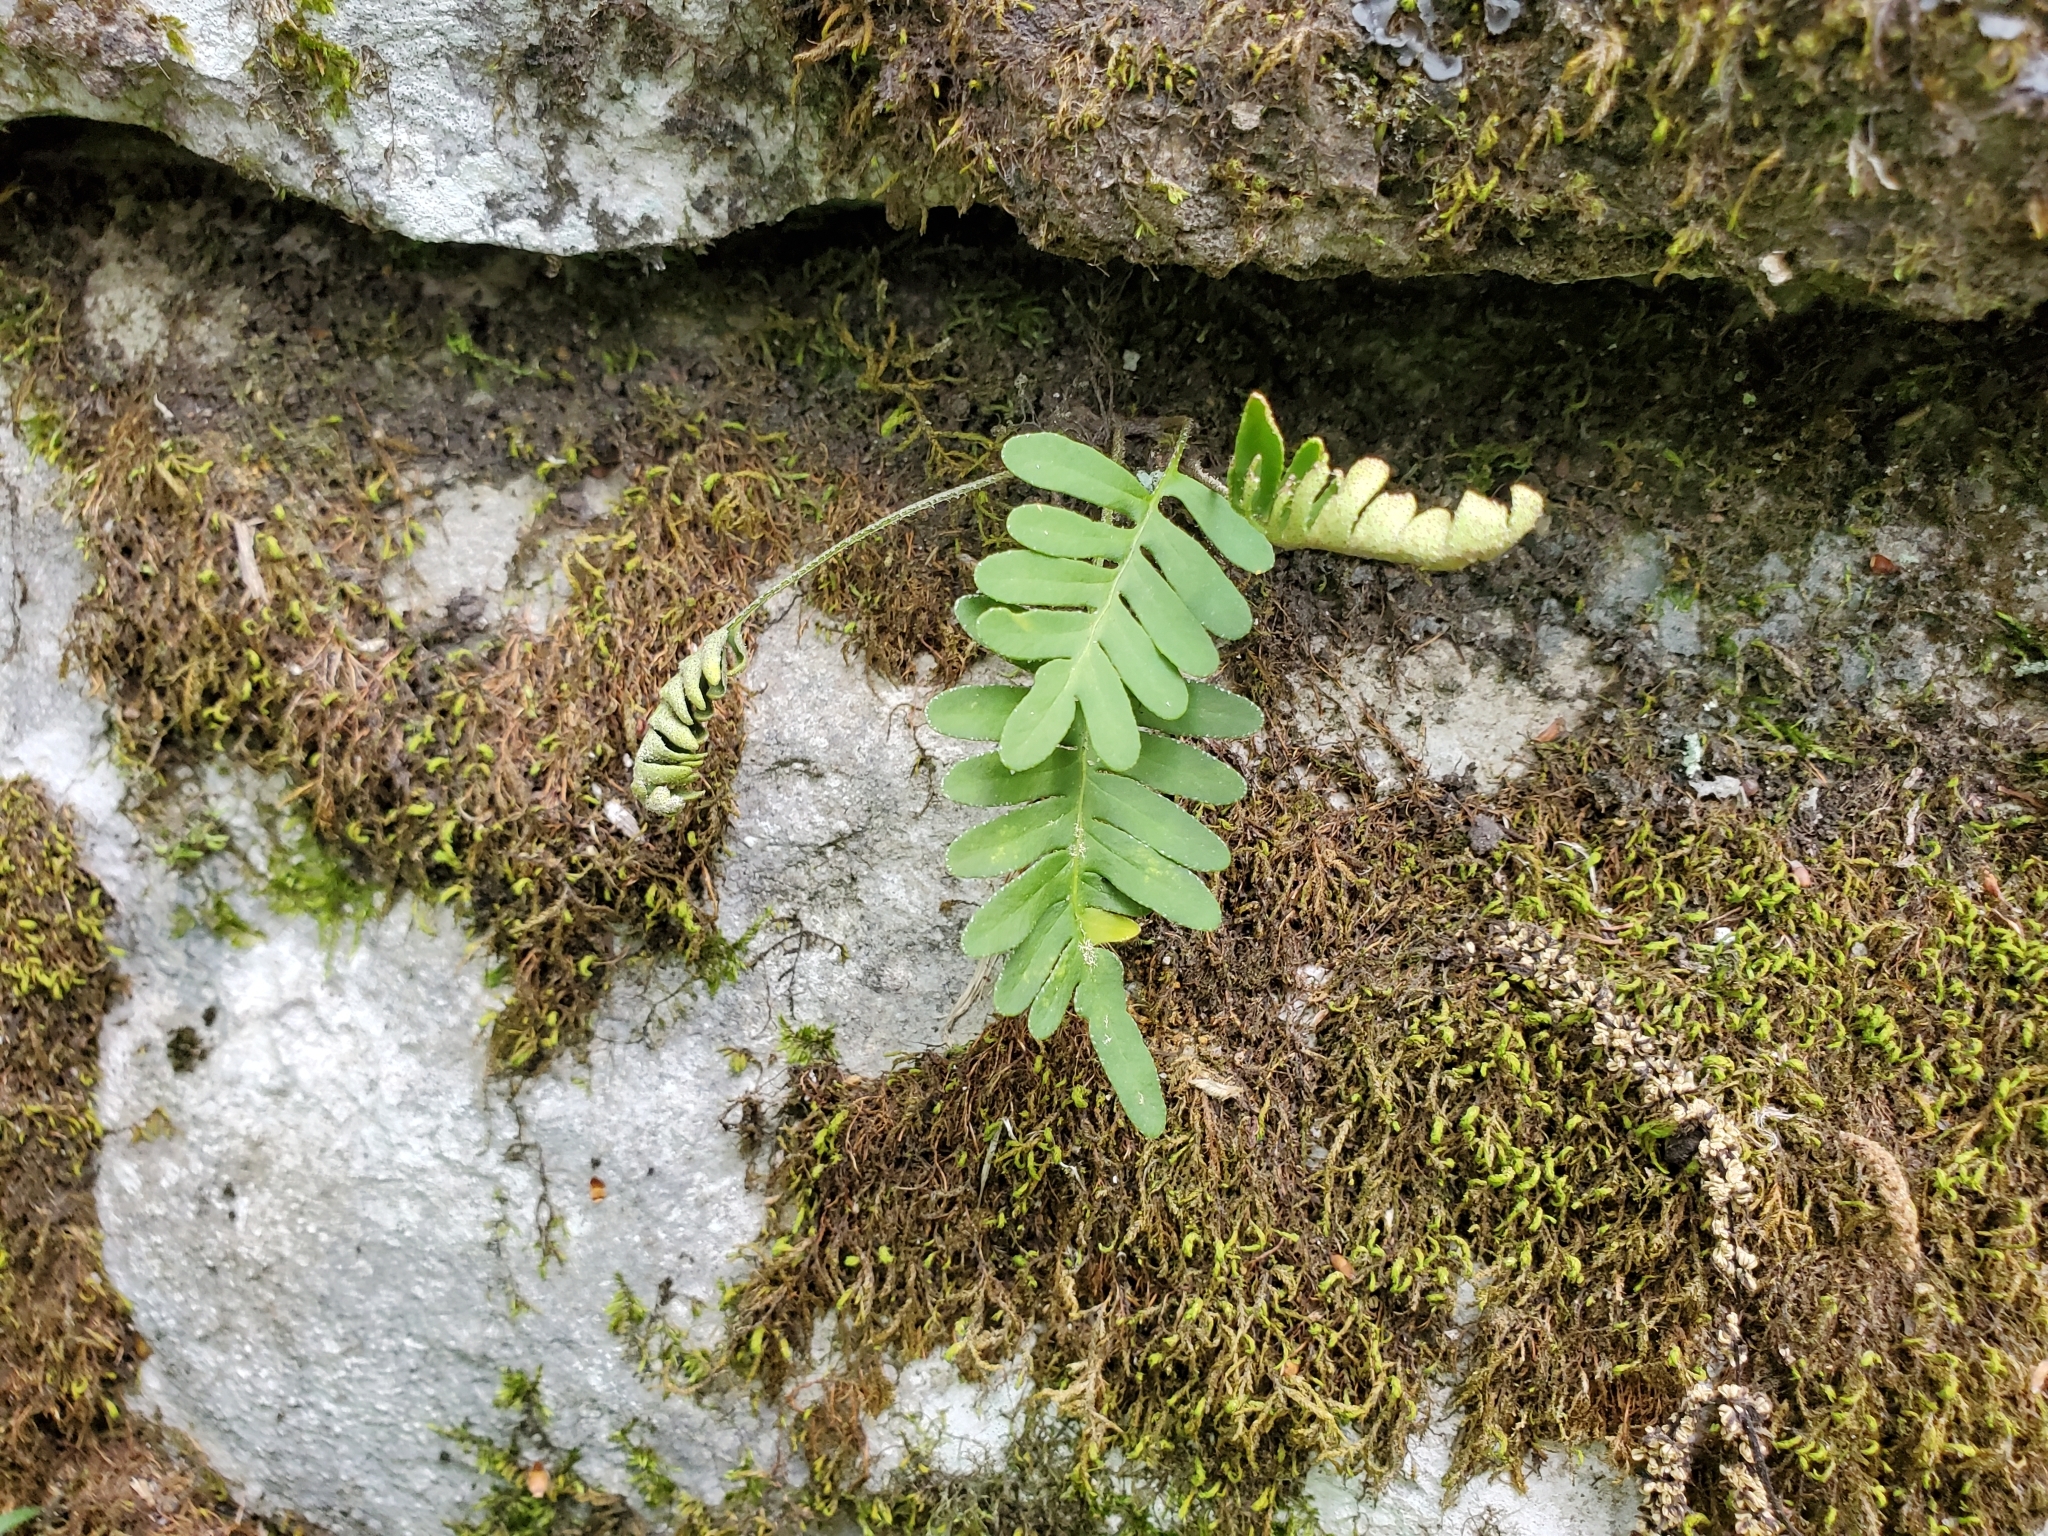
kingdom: Plantae
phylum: Tracheophyta
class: Polypodiopsida
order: Polypodiales
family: Polypodiaceae
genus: Pleopeltis
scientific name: Pleopeltis michauxiana
